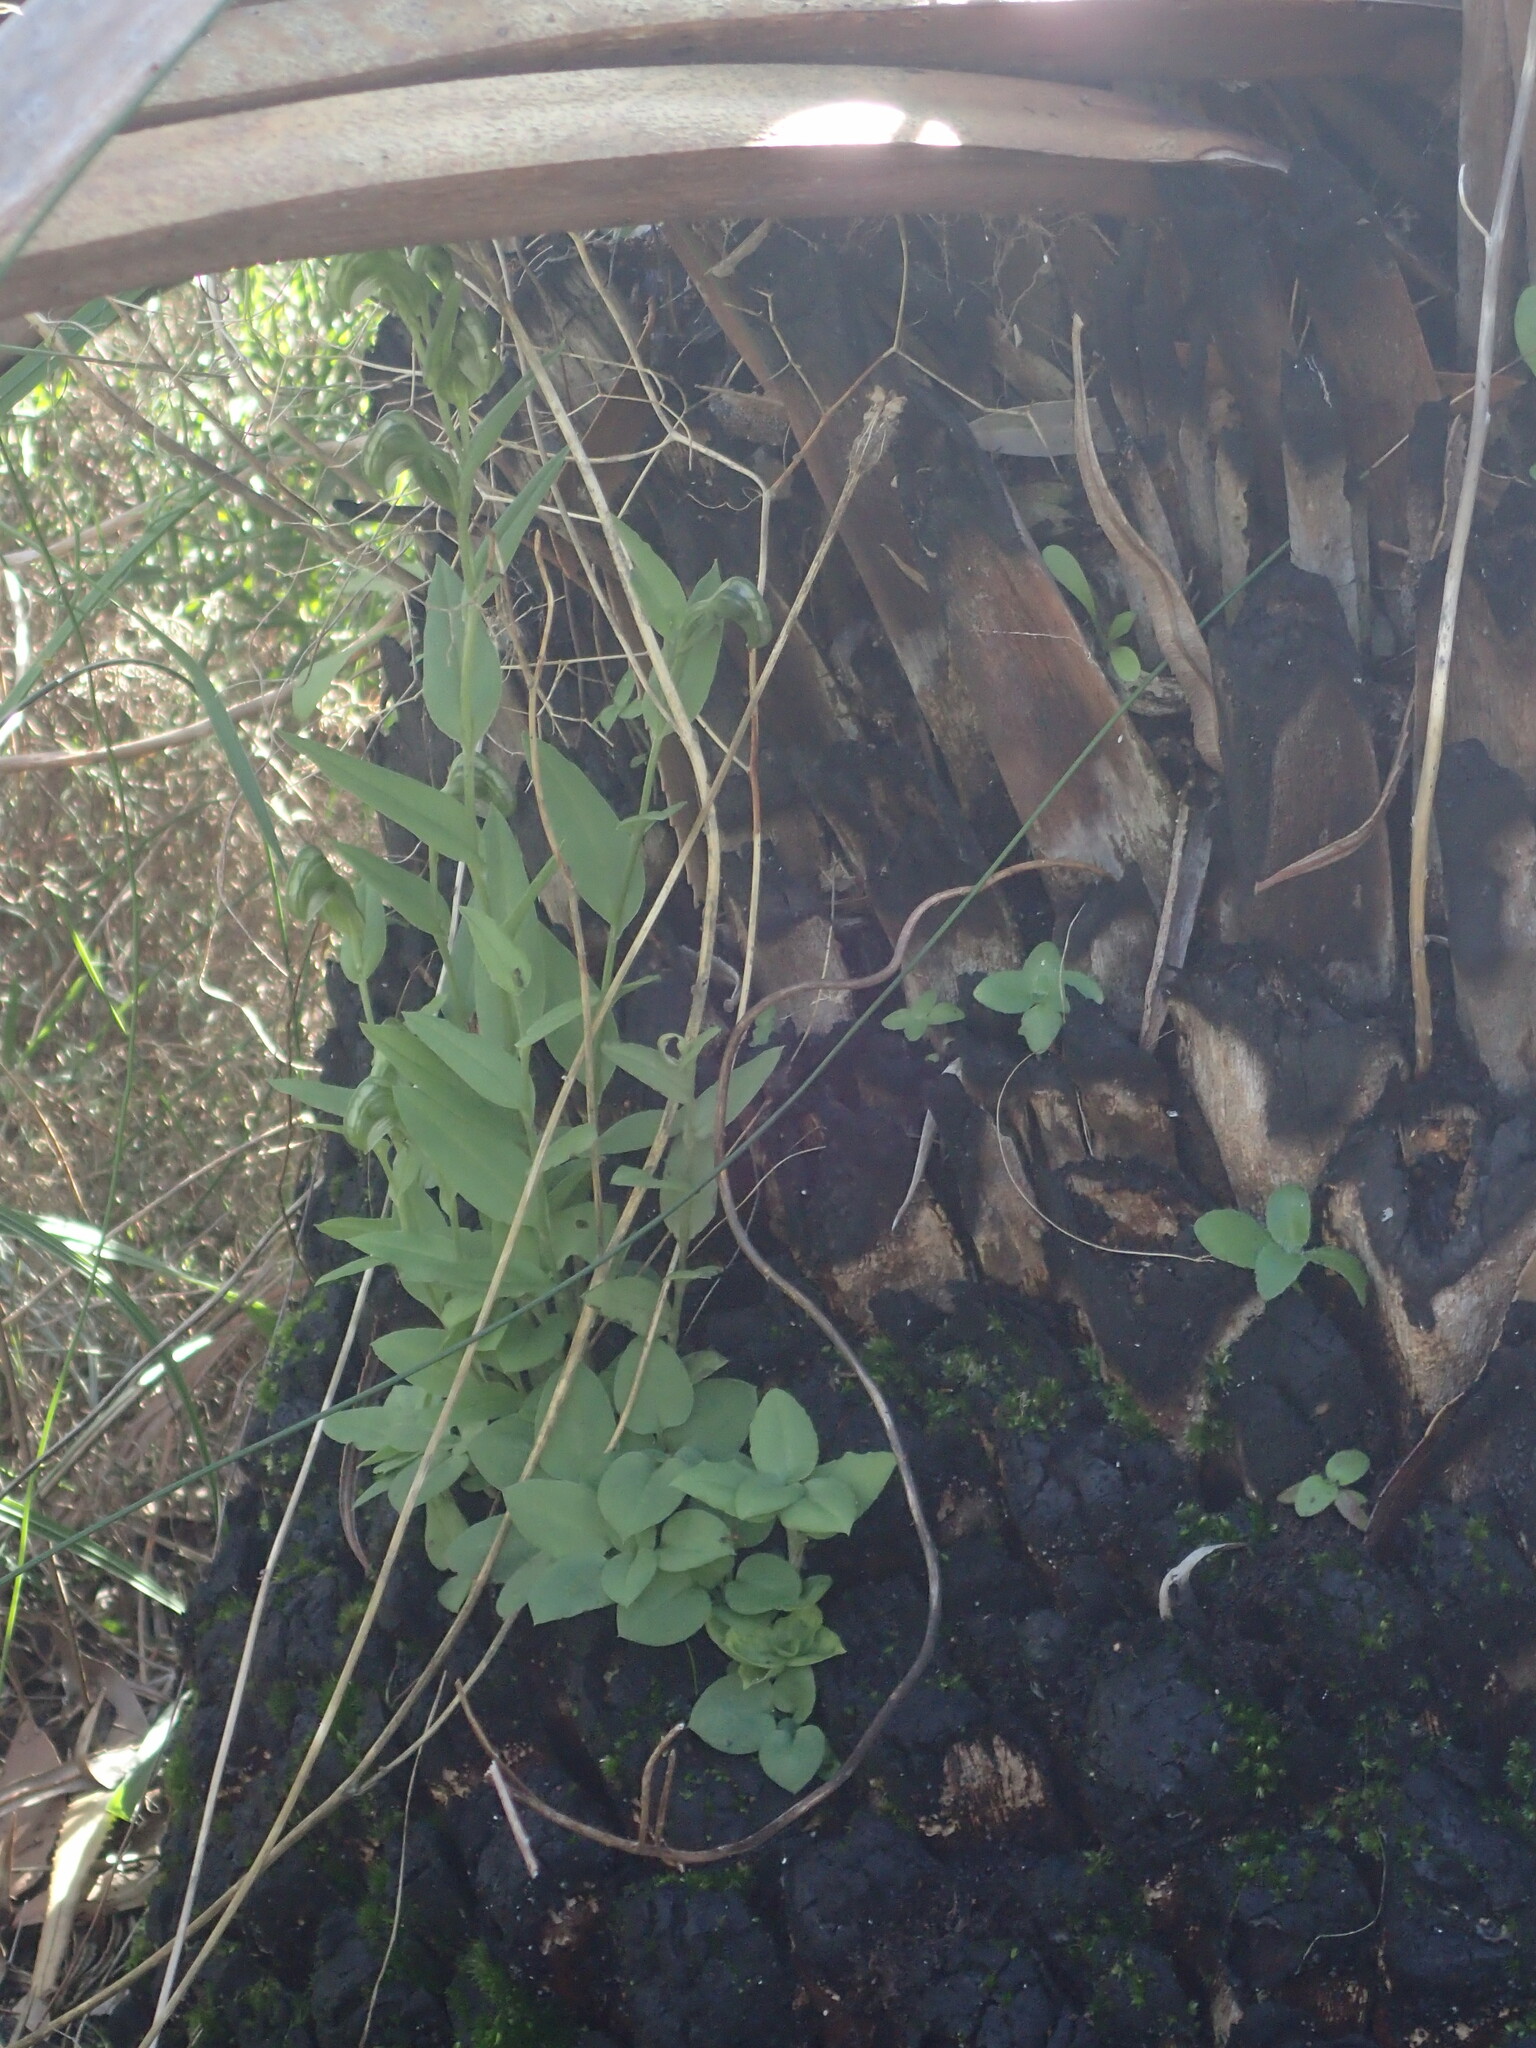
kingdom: Plantae
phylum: Tracheophyta
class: Liliopsida
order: Asparagales
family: Orchidaceae
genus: Pterostylis
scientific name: Pterostylis vittata
